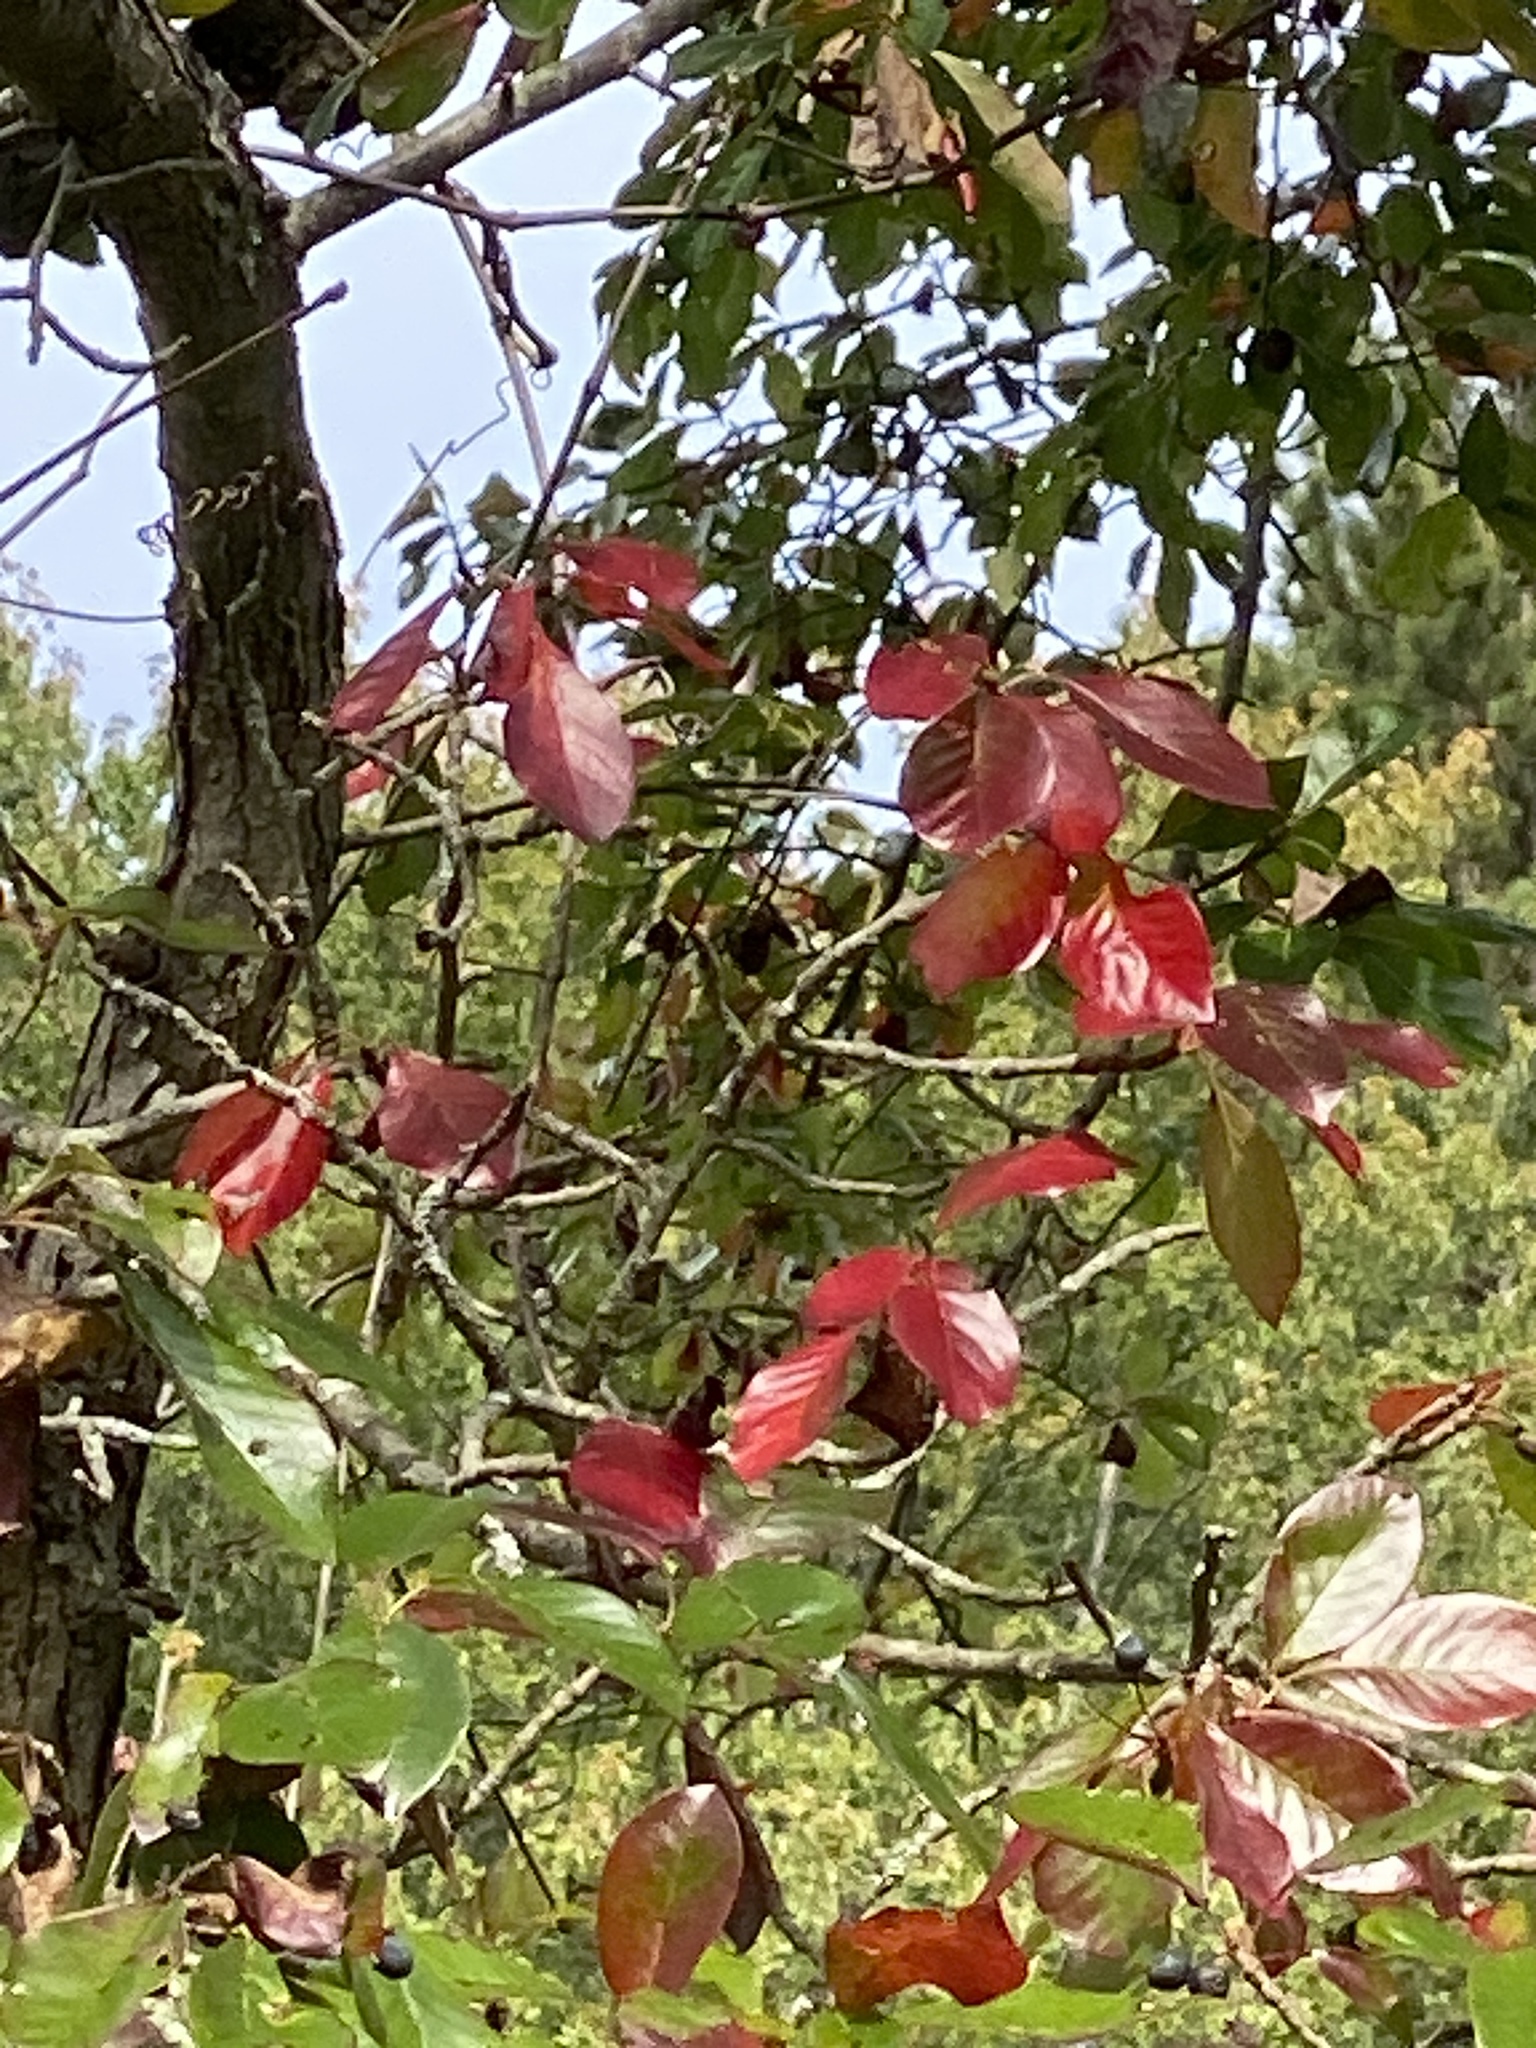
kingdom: Plantae
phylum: Tracheophyta
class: Magnoliopsida
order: Cornales
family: Nyssaceae
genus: Nyssa
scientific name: Nyssa sylvatica
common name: Black tupelo
